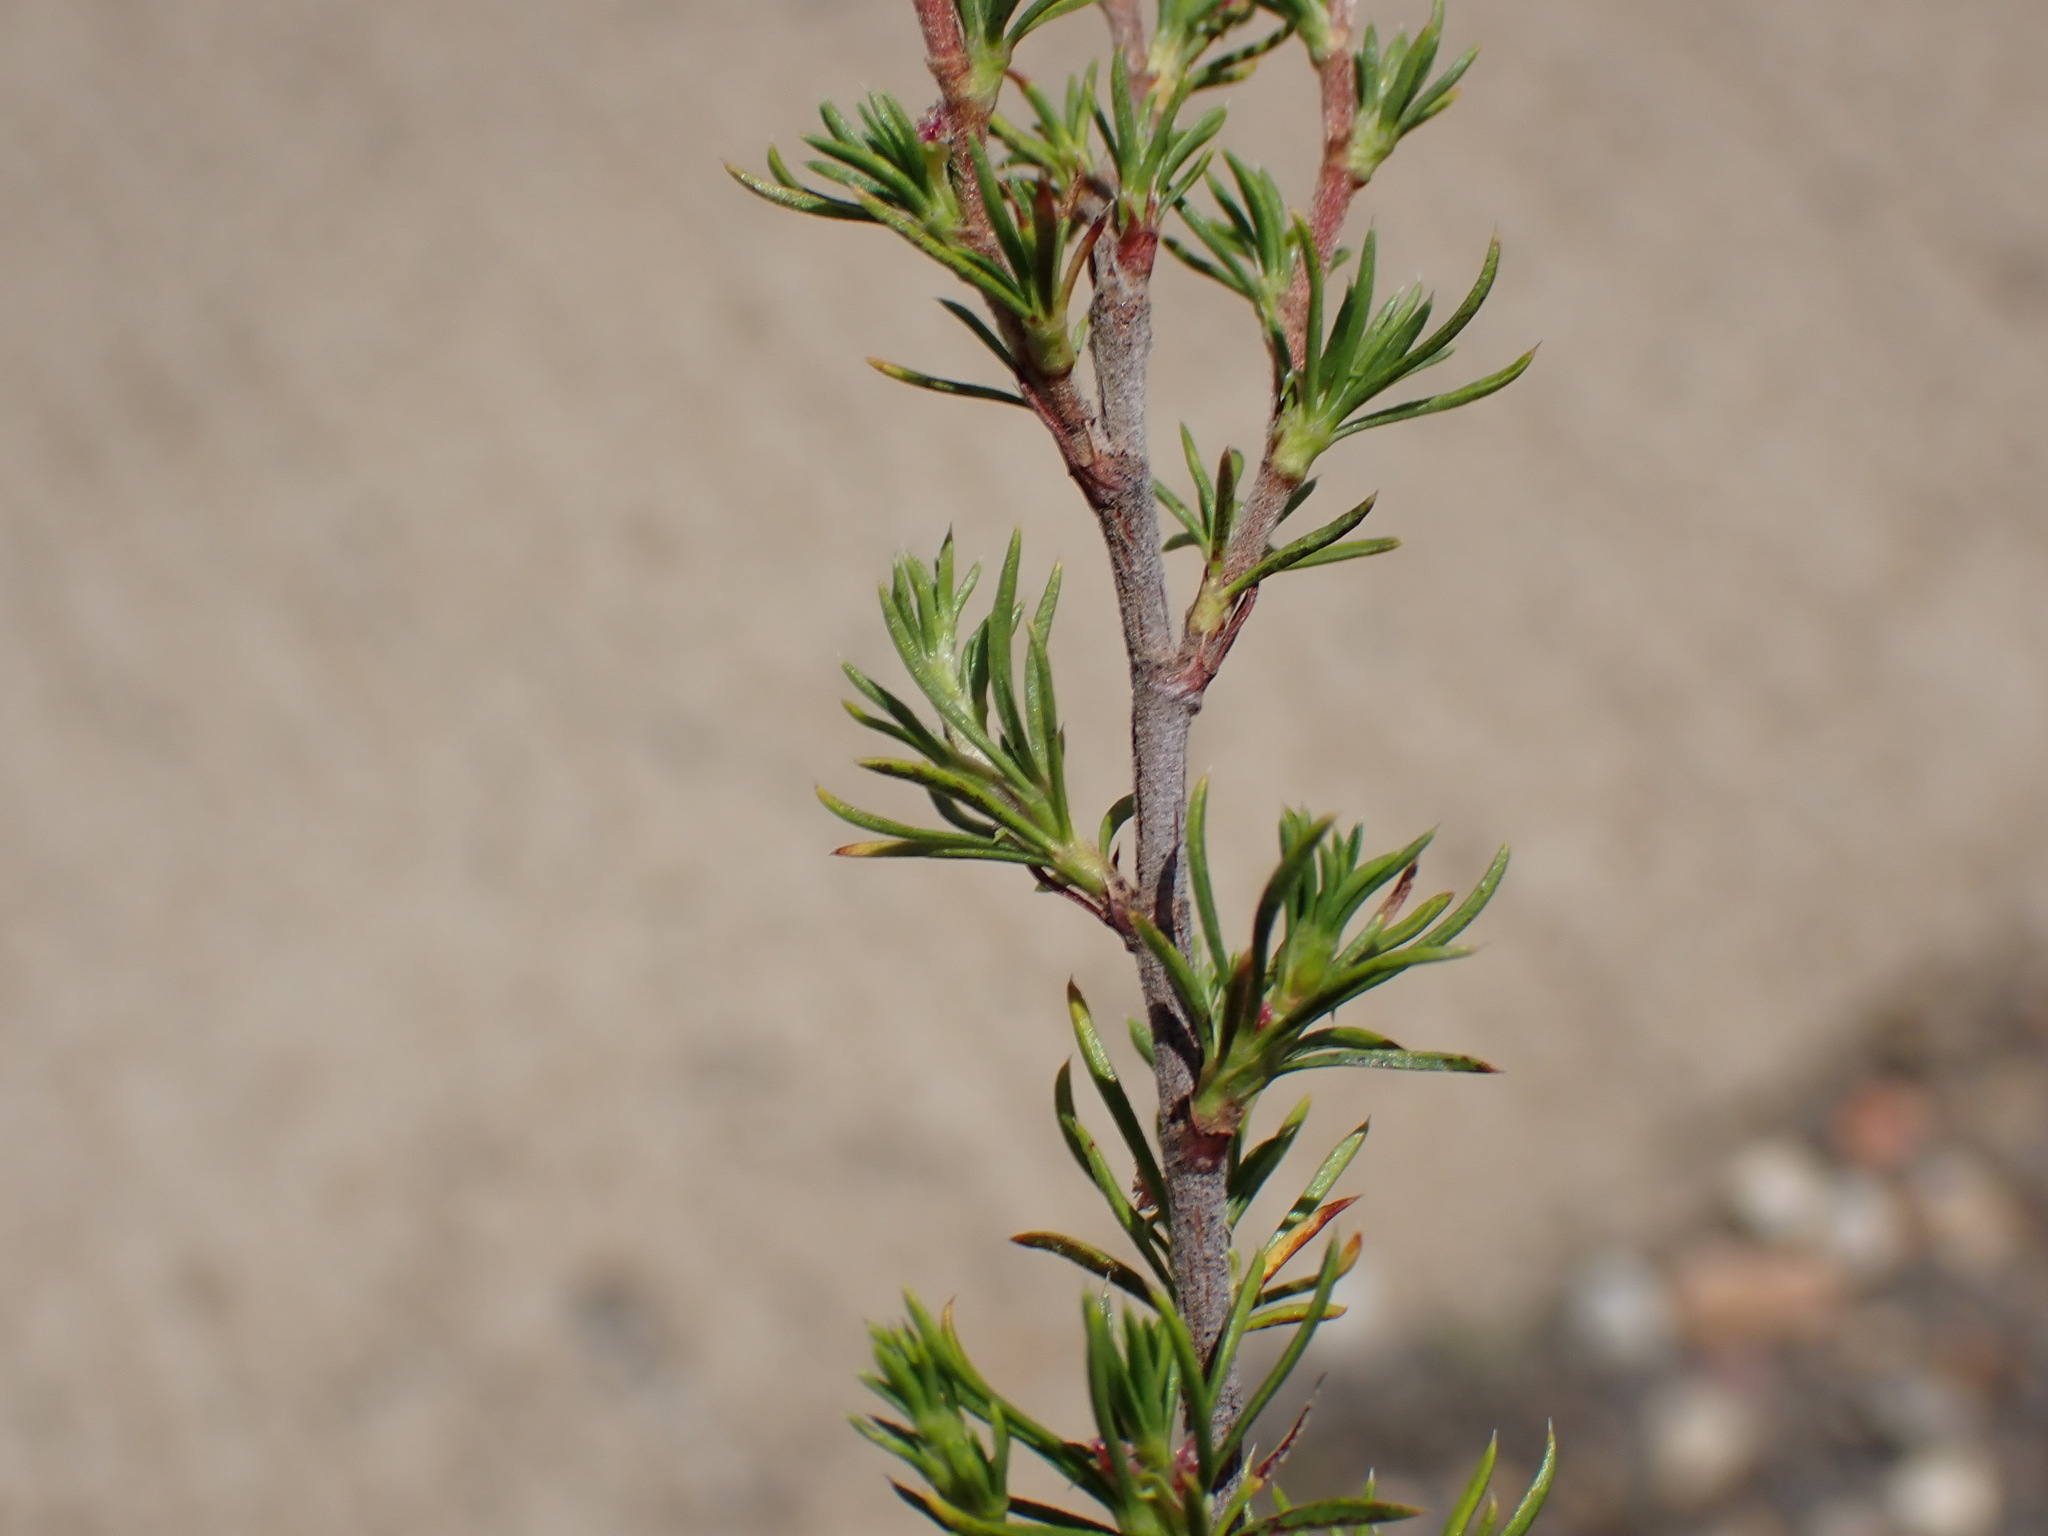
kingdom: Plantae
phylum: Tracheophyta
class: Magnoliopsida
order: Rosales
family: Rosaceae
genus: Cliffortia
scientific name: Cliffortia tuberculata
